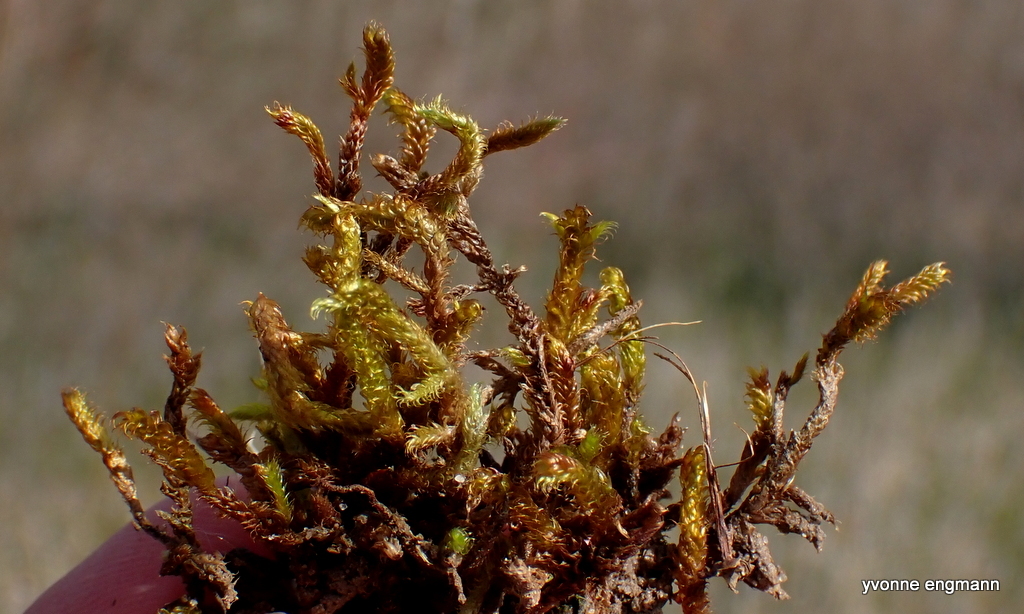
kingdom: Plantae
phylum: Bryophyta
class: Bryopsida
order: Hypnales
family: Hypnaceae
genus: Hypnum
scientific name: Hypnum cupressiforme
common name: Cypress-leaved plait-moss
